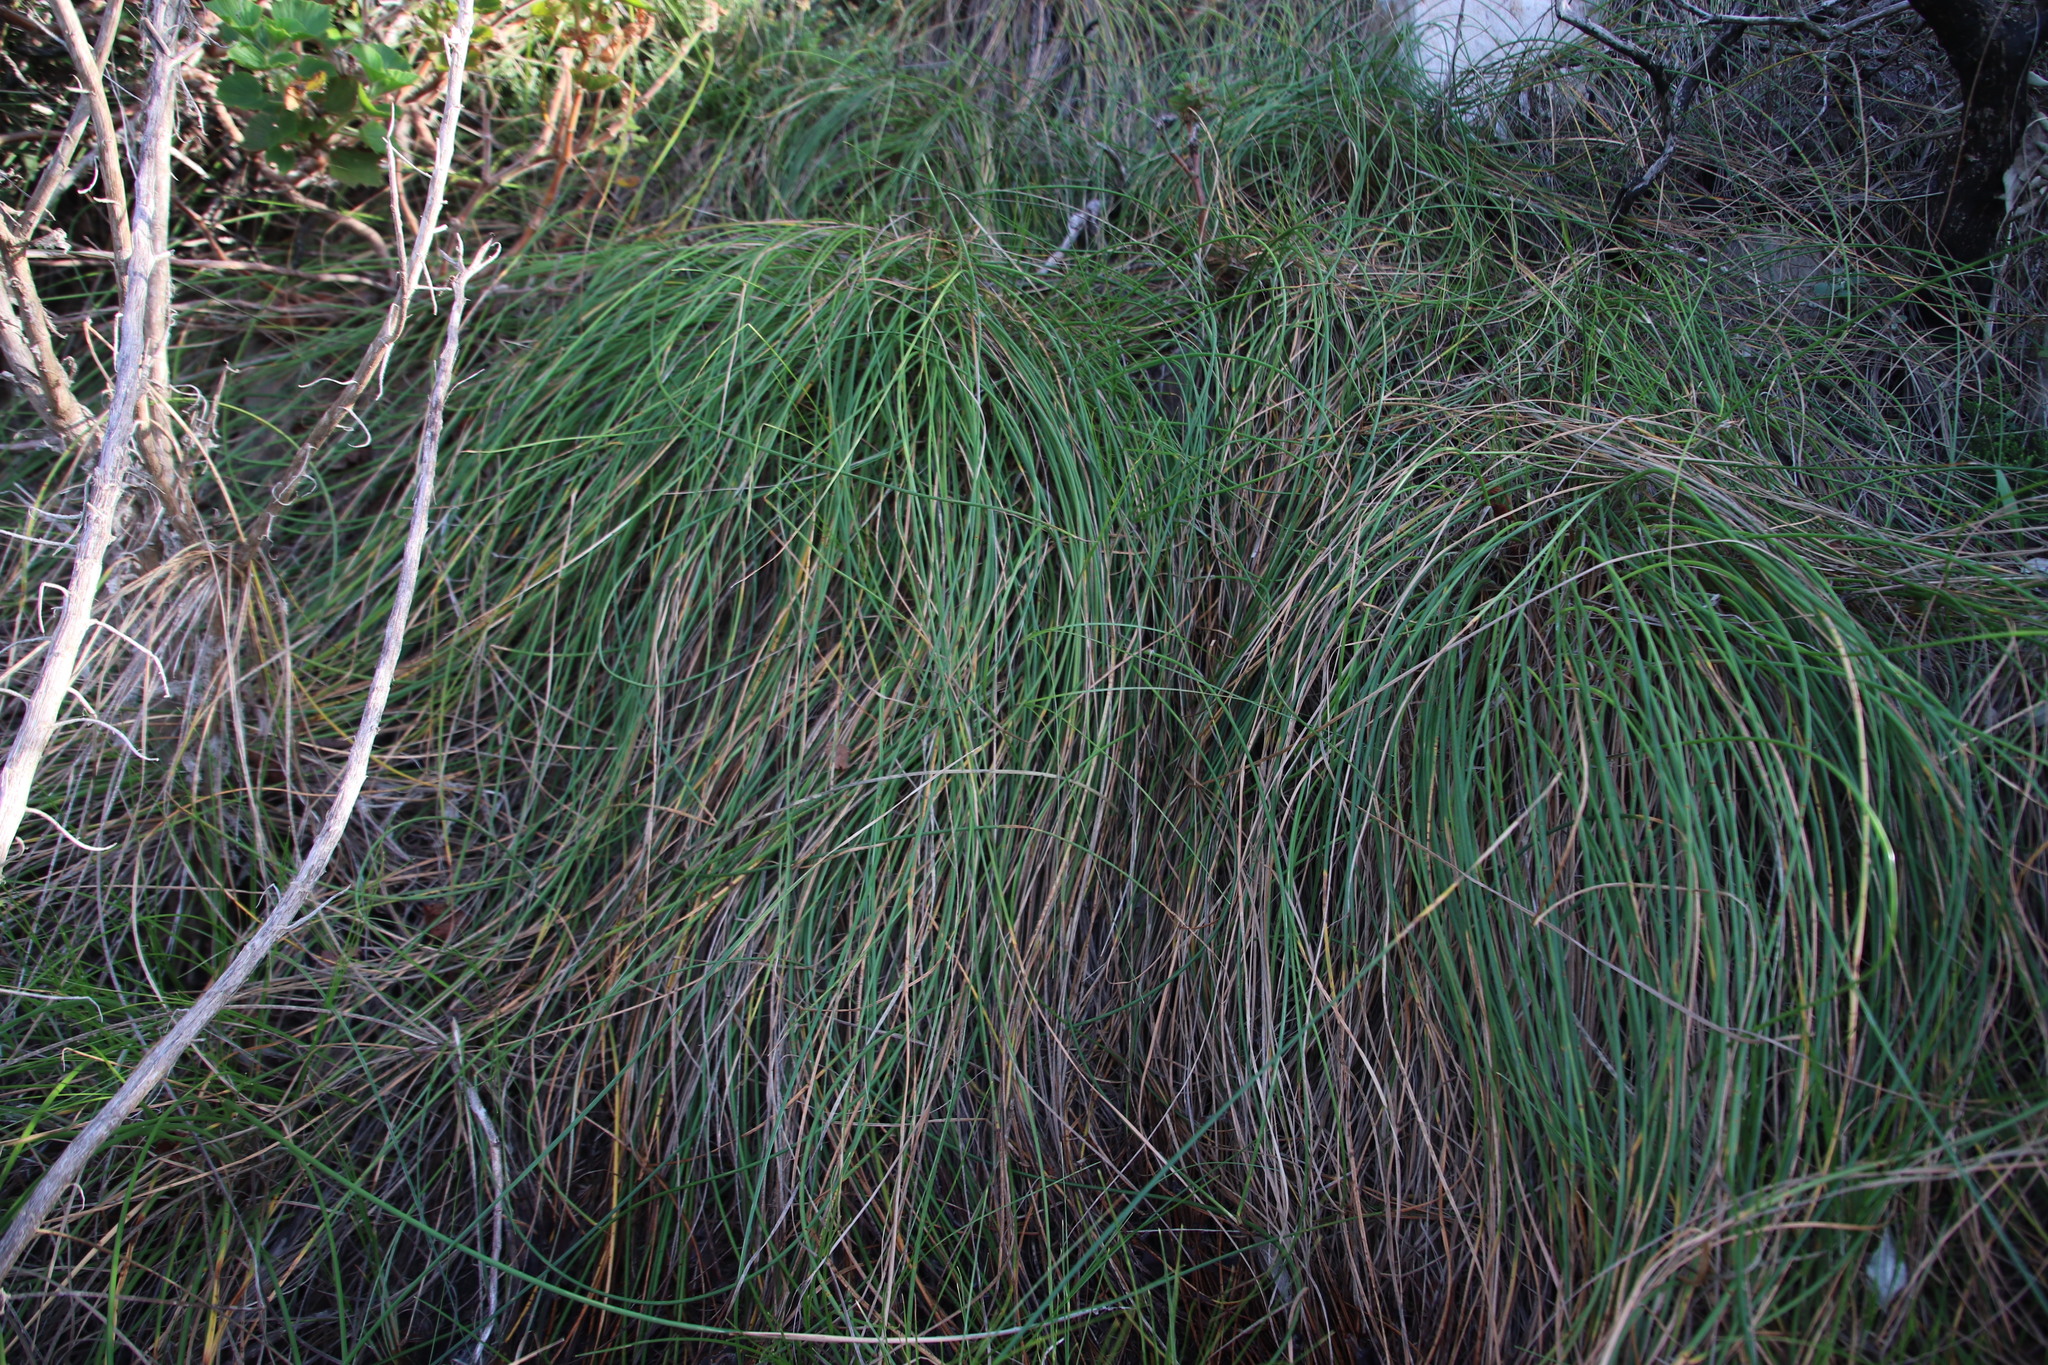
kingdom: Plantae
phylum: Tracheophyta
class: Liliopsida
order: Poales
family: Cyperaceae
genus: Ficinia
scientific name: Ficinia brevifolia
